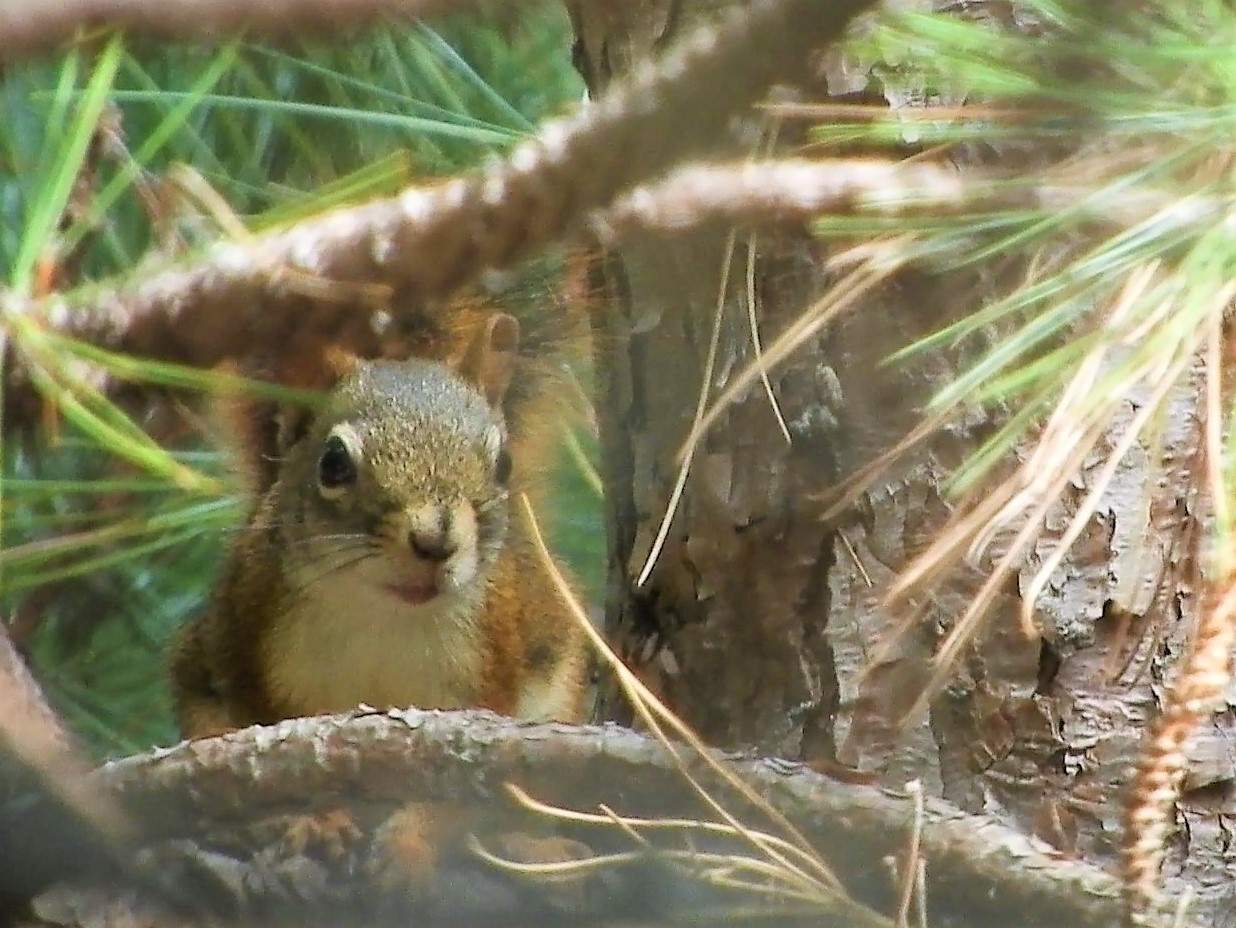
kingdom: Animalia
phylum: Chordata
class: Mammalia
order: Rodentia
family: Sciuridae
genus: Tamiasciurus
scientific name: Tamiasciurus hudsonicus
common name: Red squirrel
